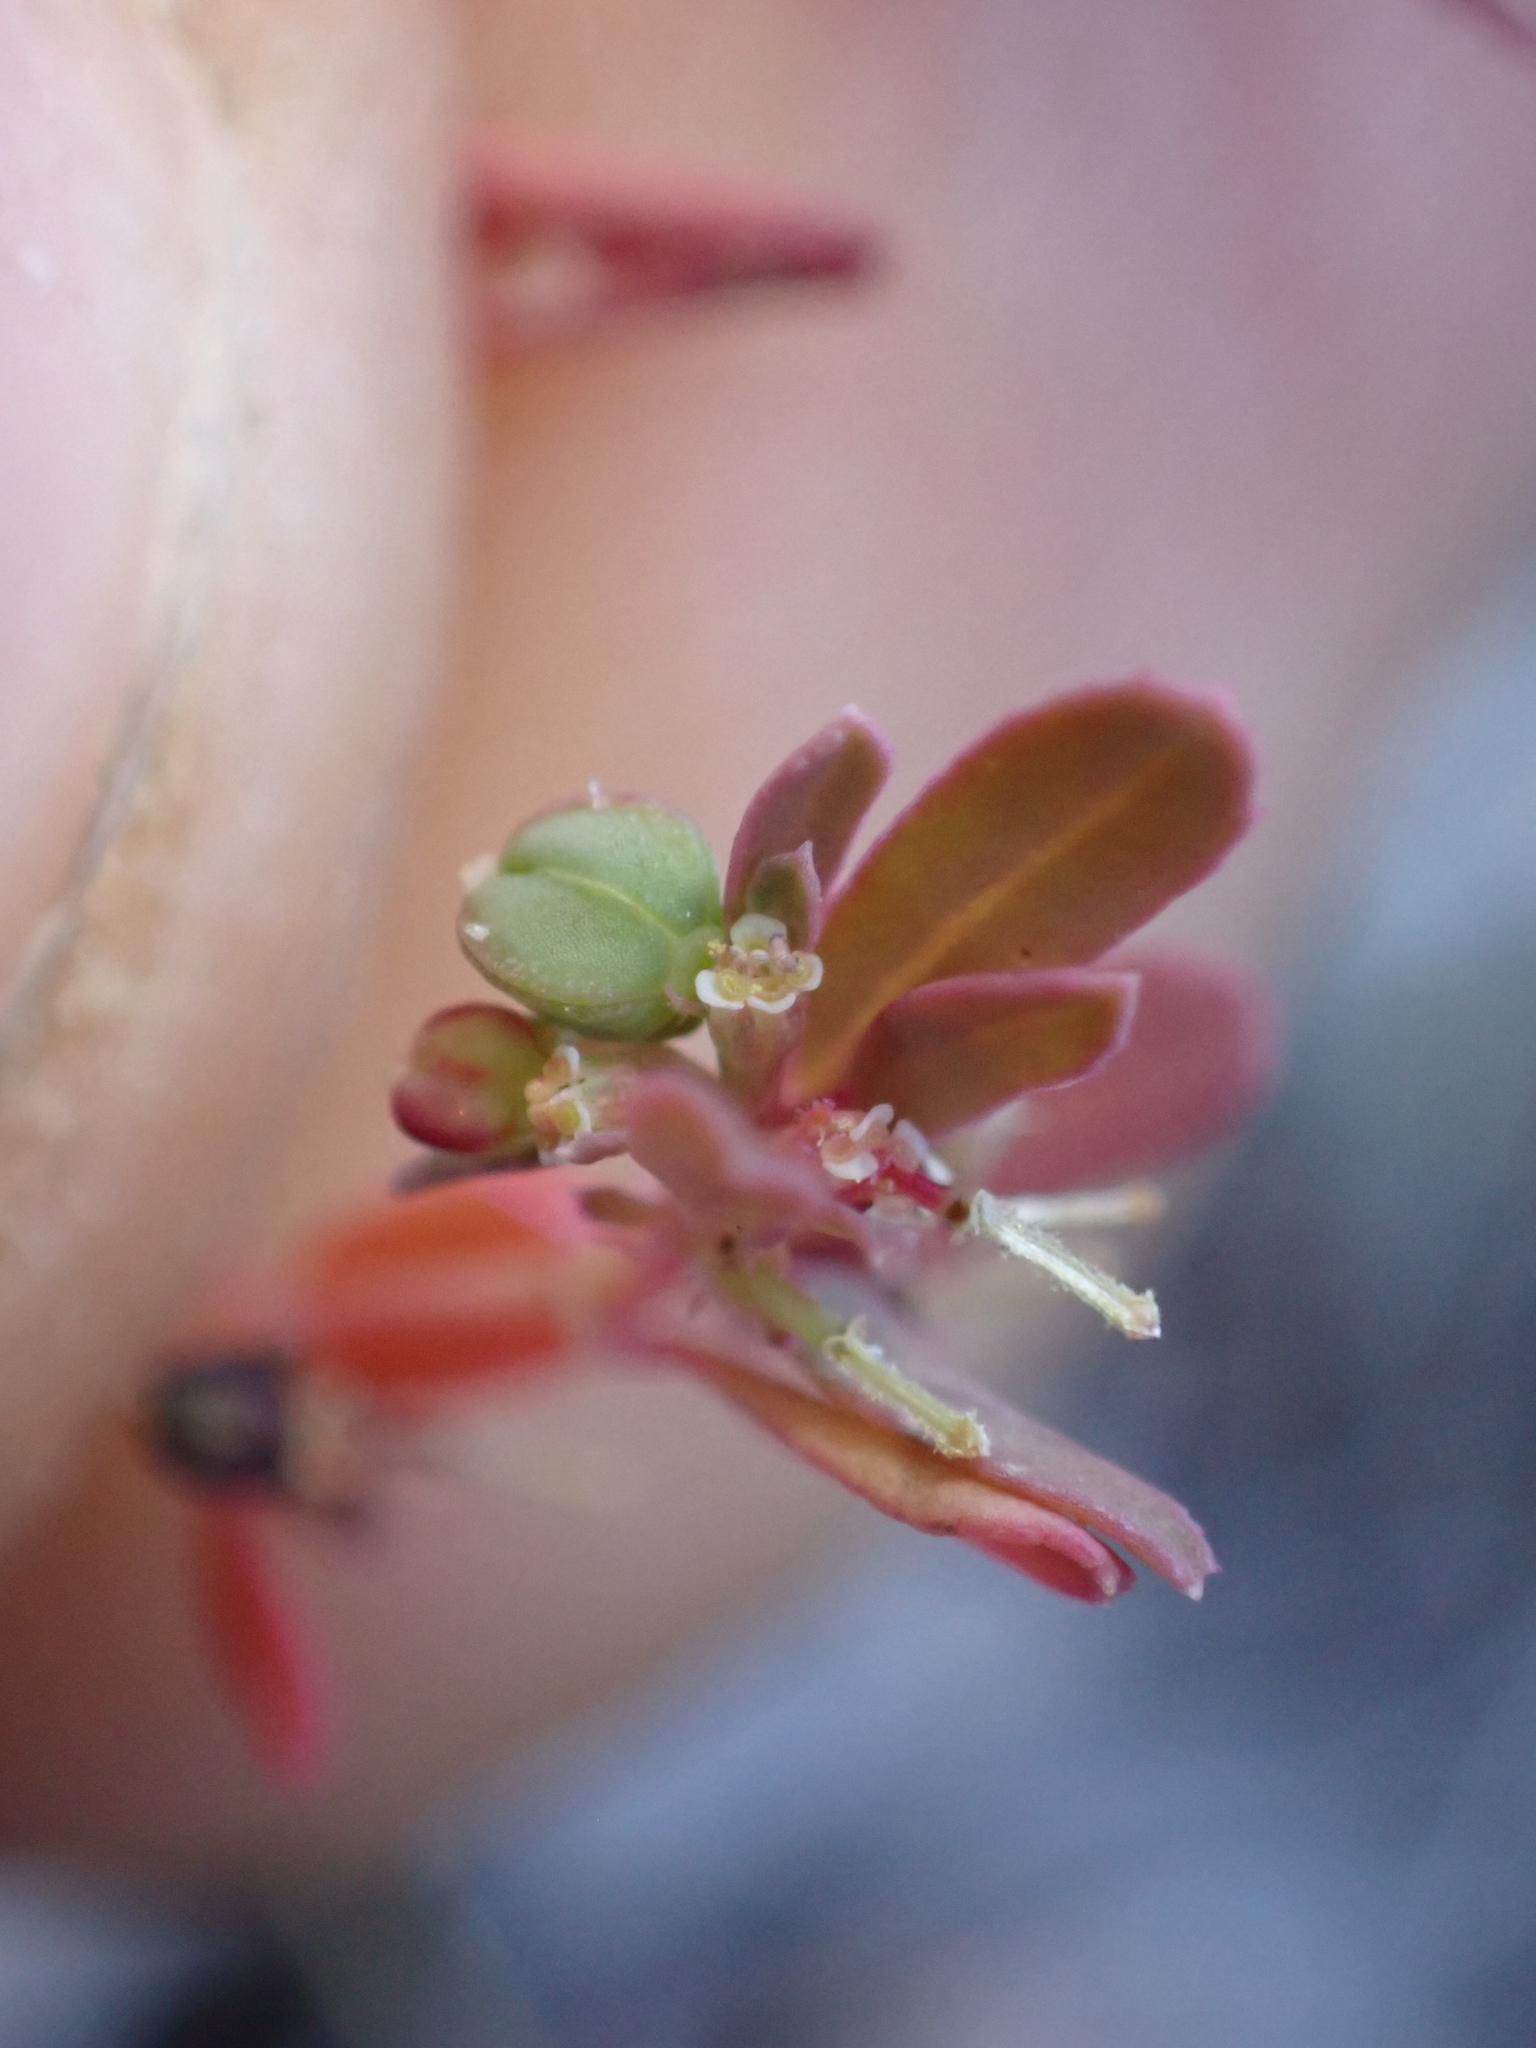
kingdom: Plantae
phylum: Tracheophyta
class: Magnoliopsida
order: Malpighiales
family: Euphorbiaceae
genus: Euphorbia
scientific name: Euphorbia serpillifolia
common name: Thyme-leaf spurge
